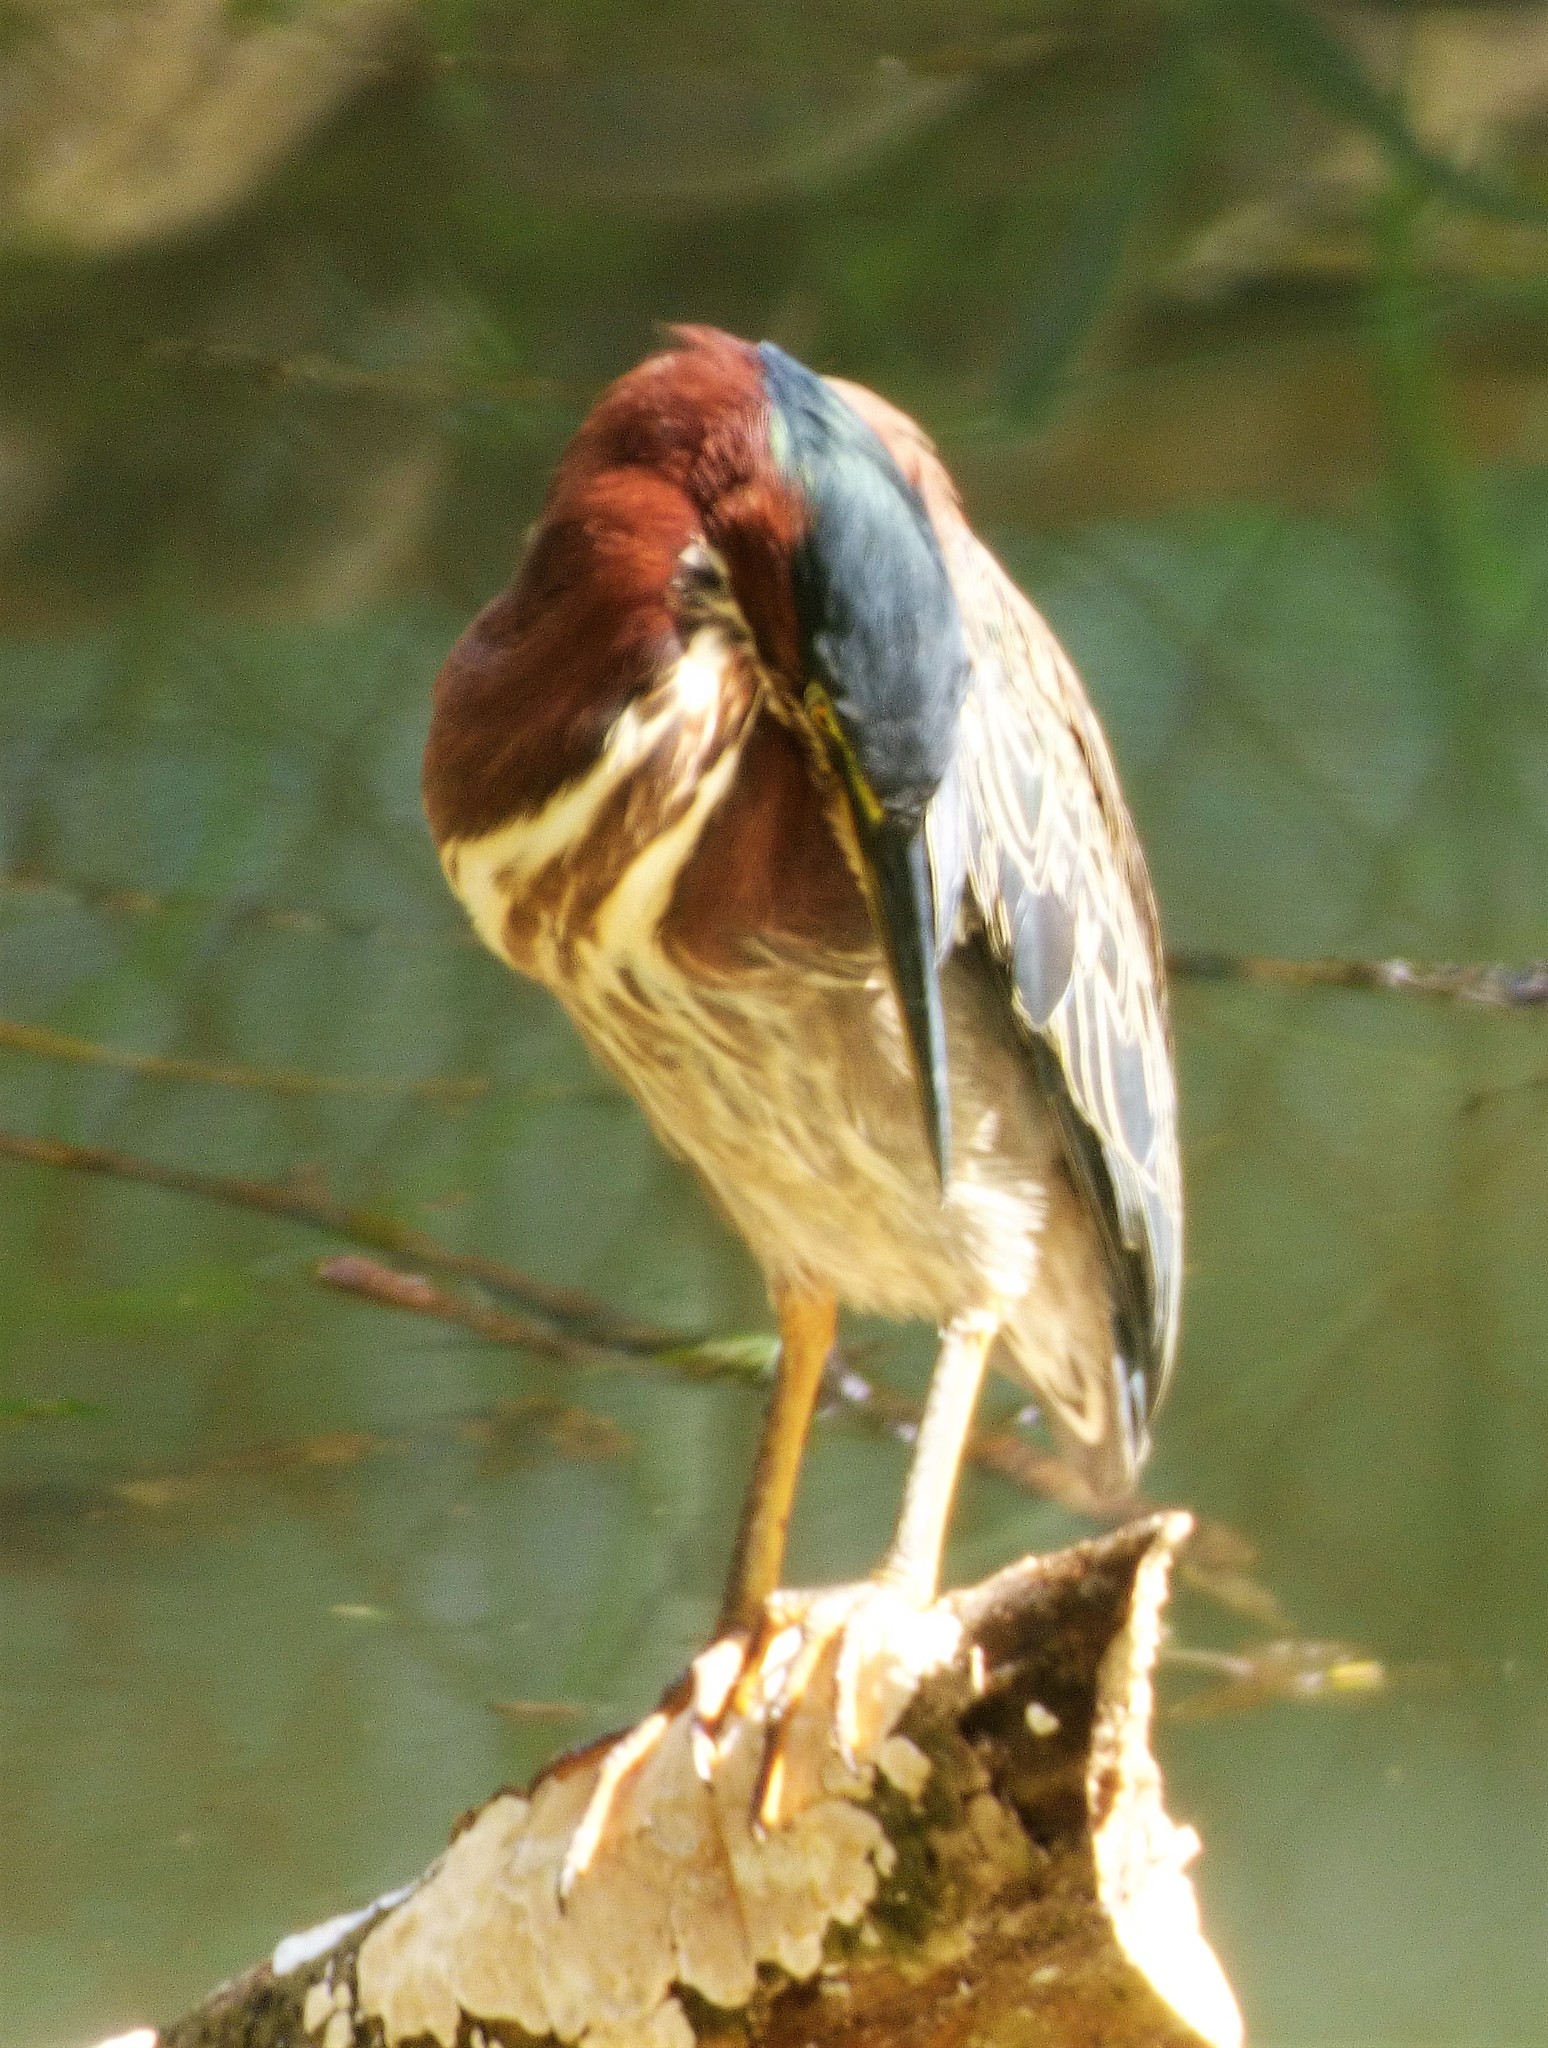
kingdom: Animalia
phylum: Chordata
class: Aves
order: Pelecaniformes
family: Ardeidae
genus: Butorides
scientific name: Butorides virescens
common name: Green heron
